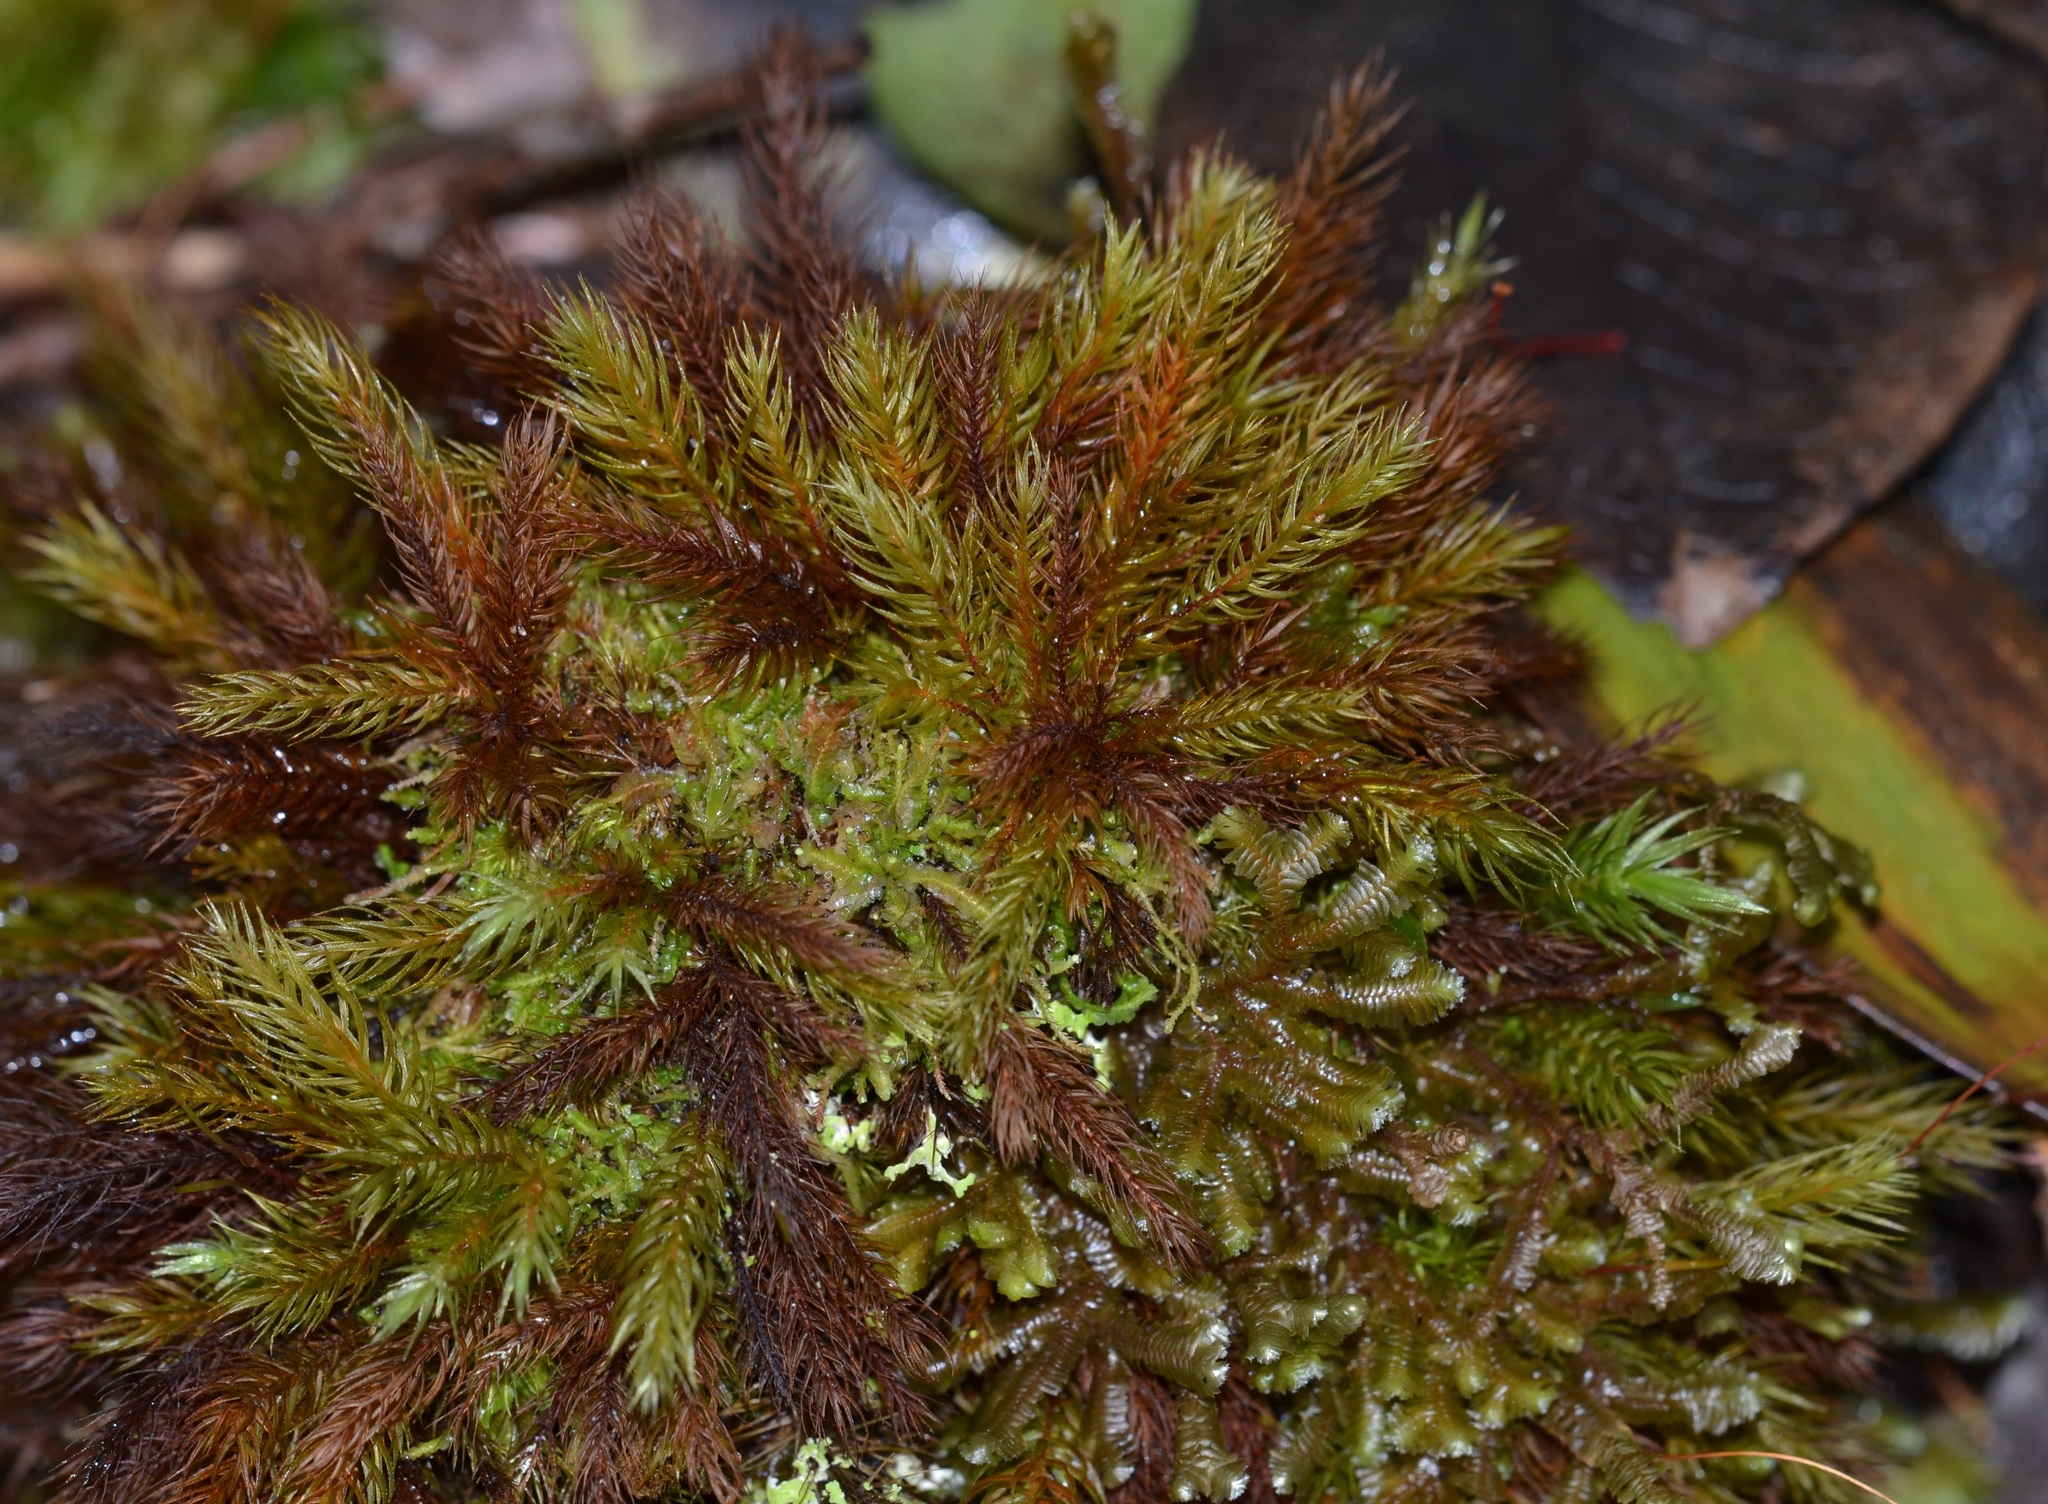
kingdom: Plantae
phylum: Bryophyta
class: Bryopsida
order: Rhizogoniales
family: Calomniaceae
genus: Pyrrhobryum
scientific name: Pyrrhobryum spiniforme
